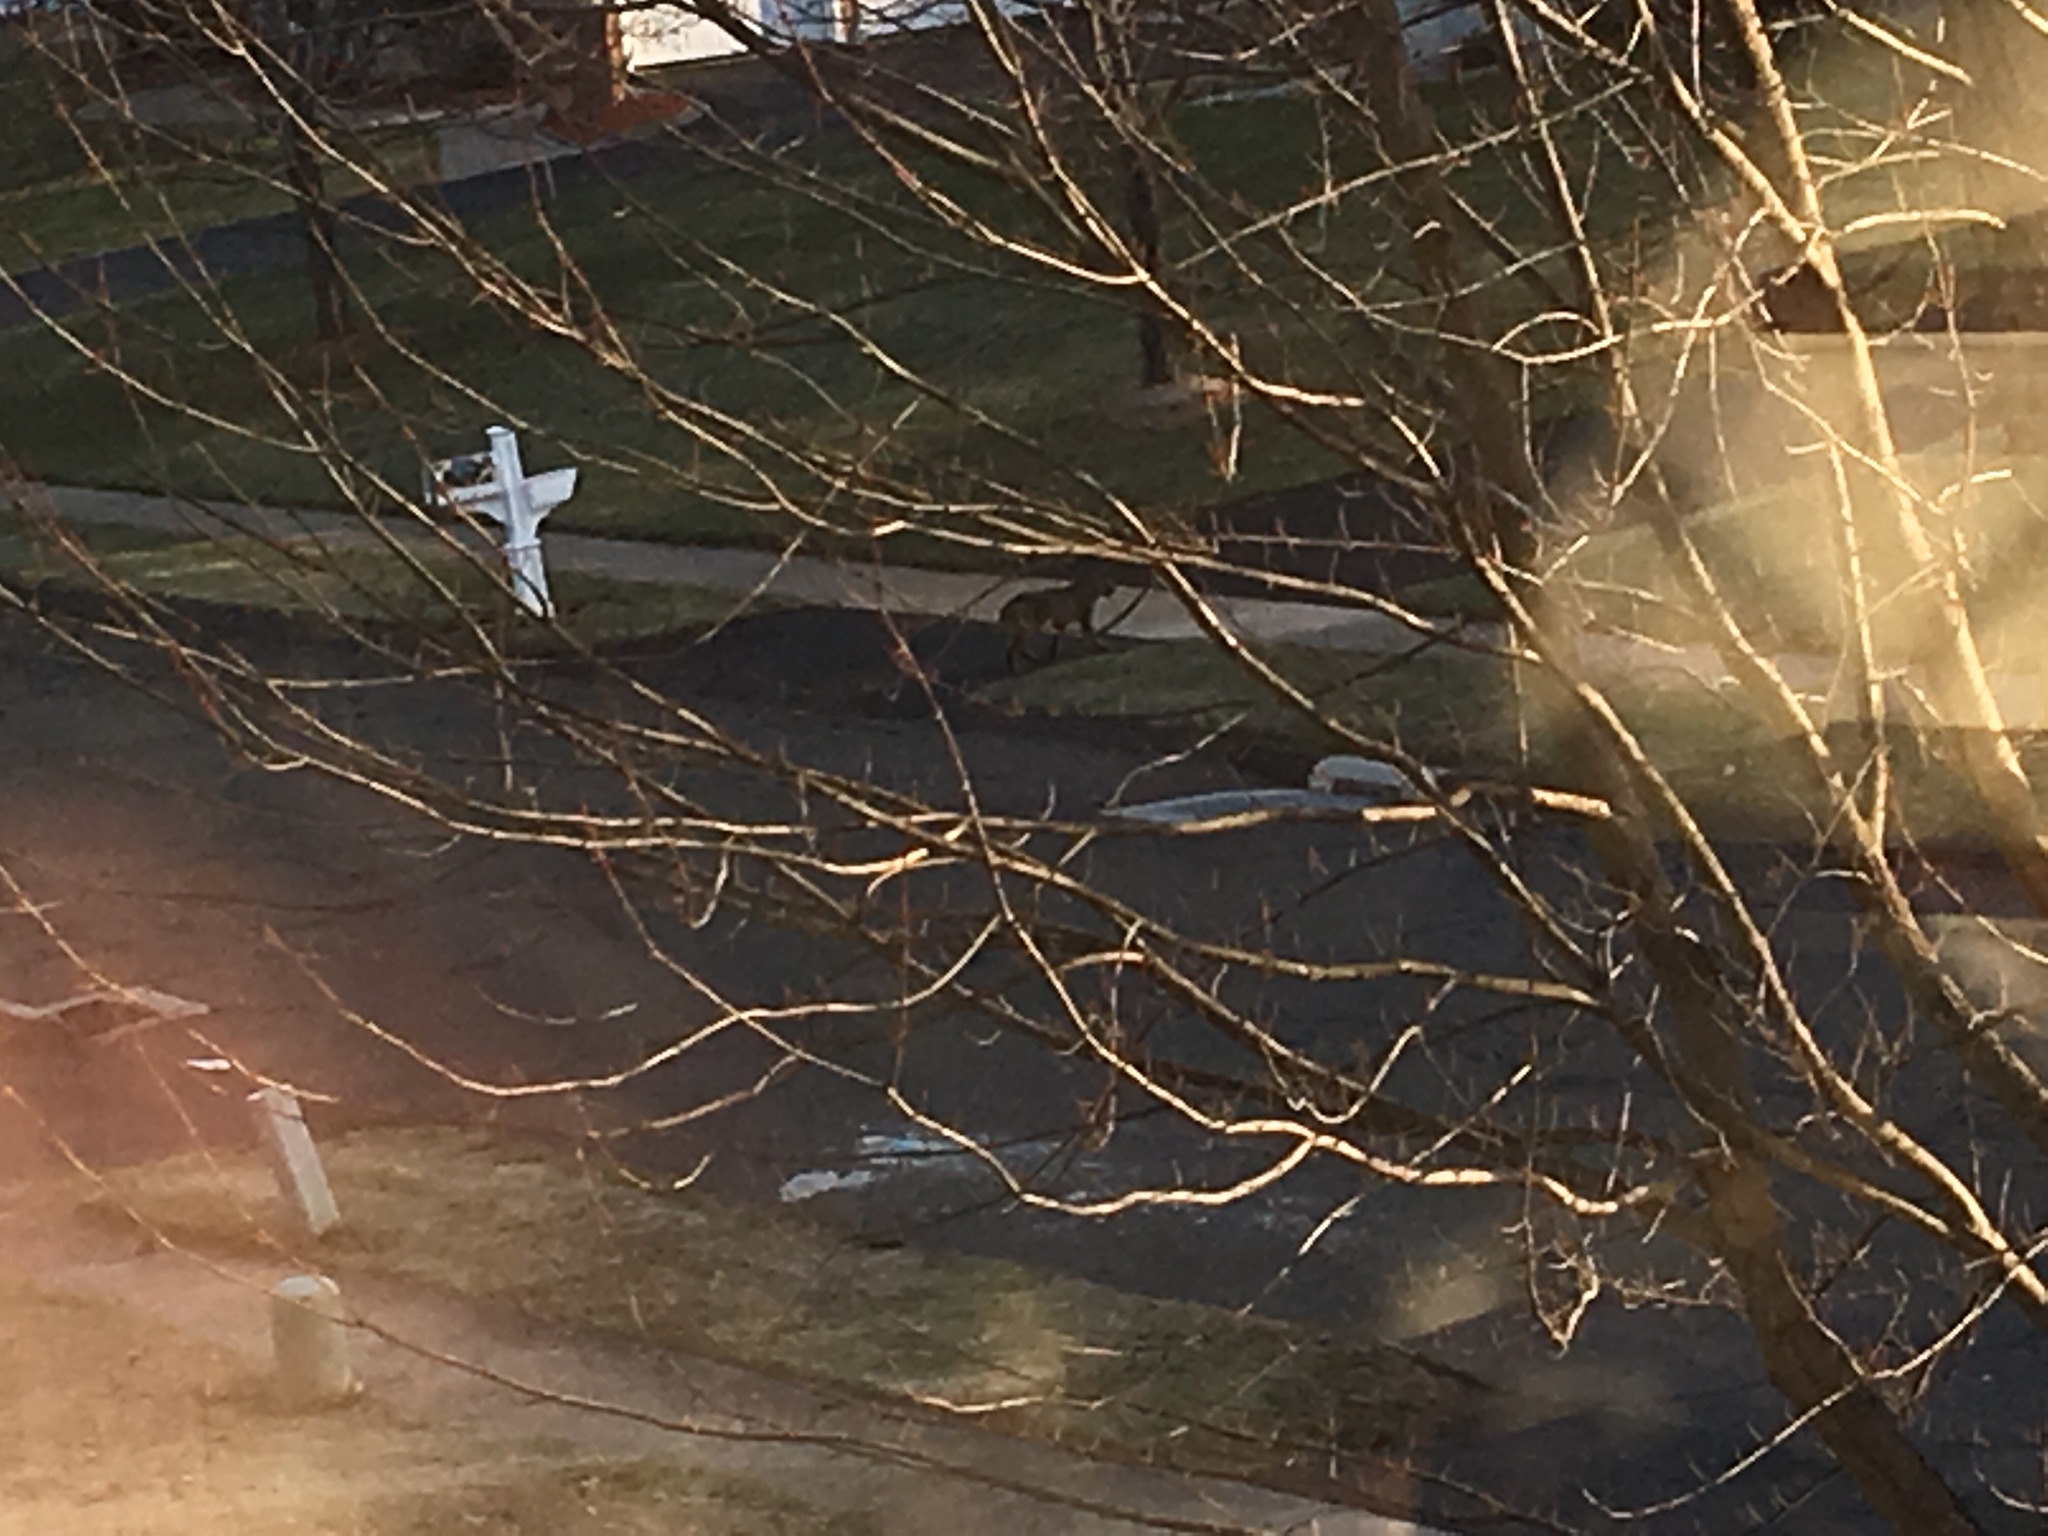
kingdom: Animalia
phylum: Chordata
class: Mammalia
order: Carnivora
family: Felidae
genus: Lynx
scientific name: Lynx rufus
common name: Bobcat
